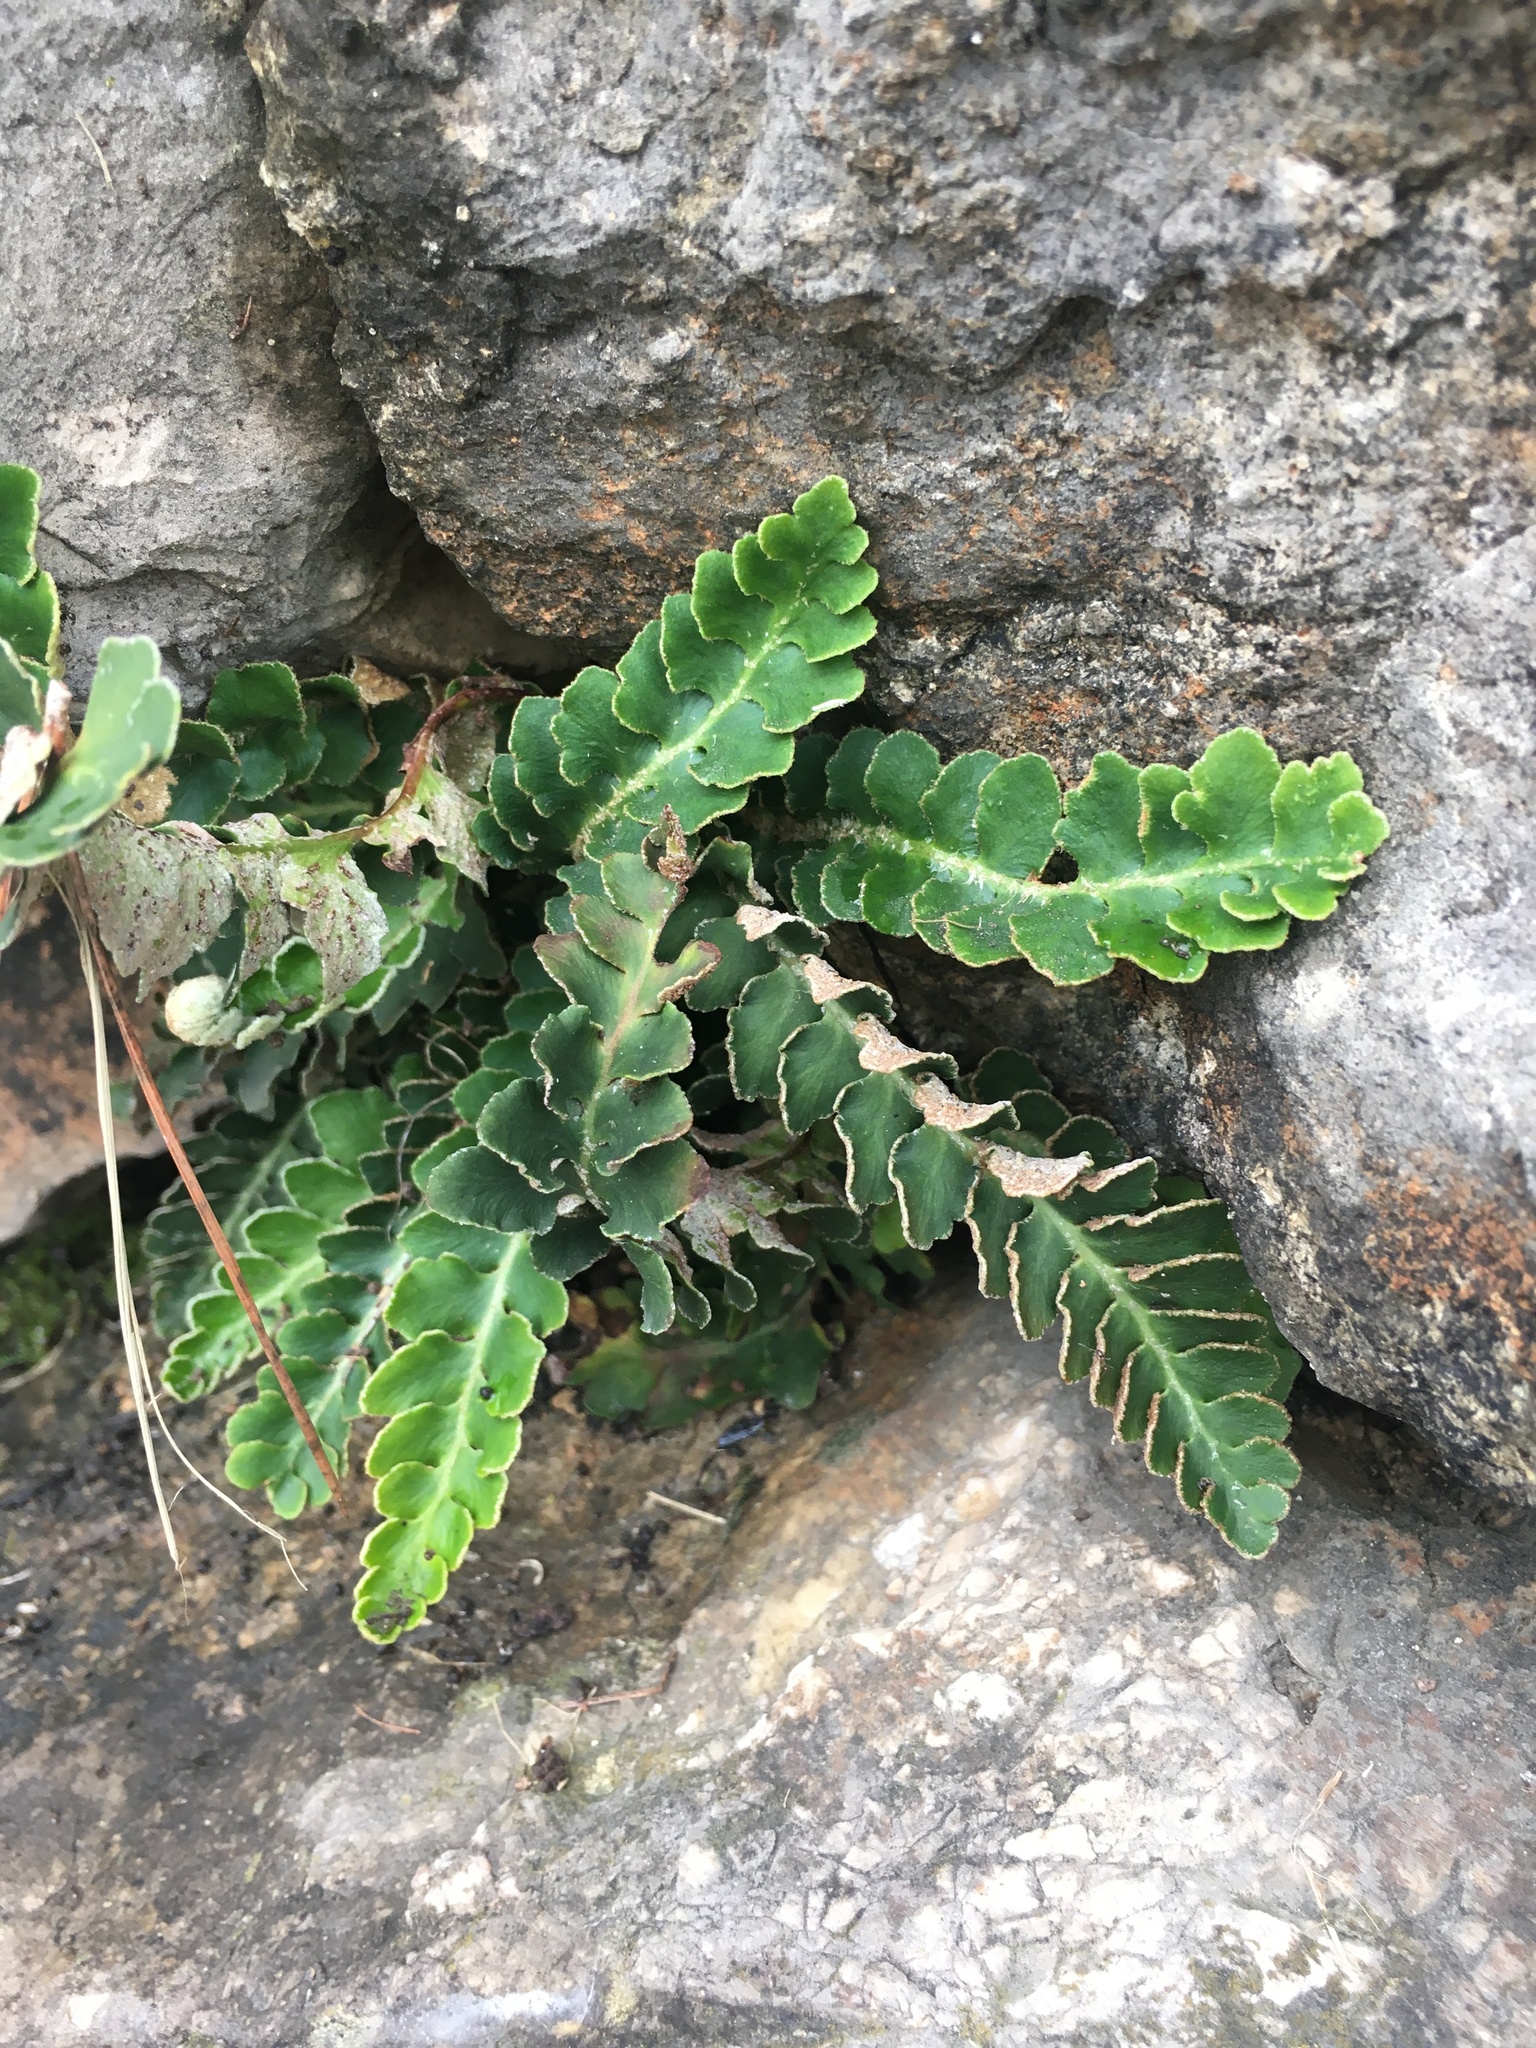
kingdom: Plantae
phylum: Tracheophyta
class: Polypodiopsida
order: Polypodiales
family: Aspleniaceae
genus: Asplenium
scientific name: Asplenium ceterach
